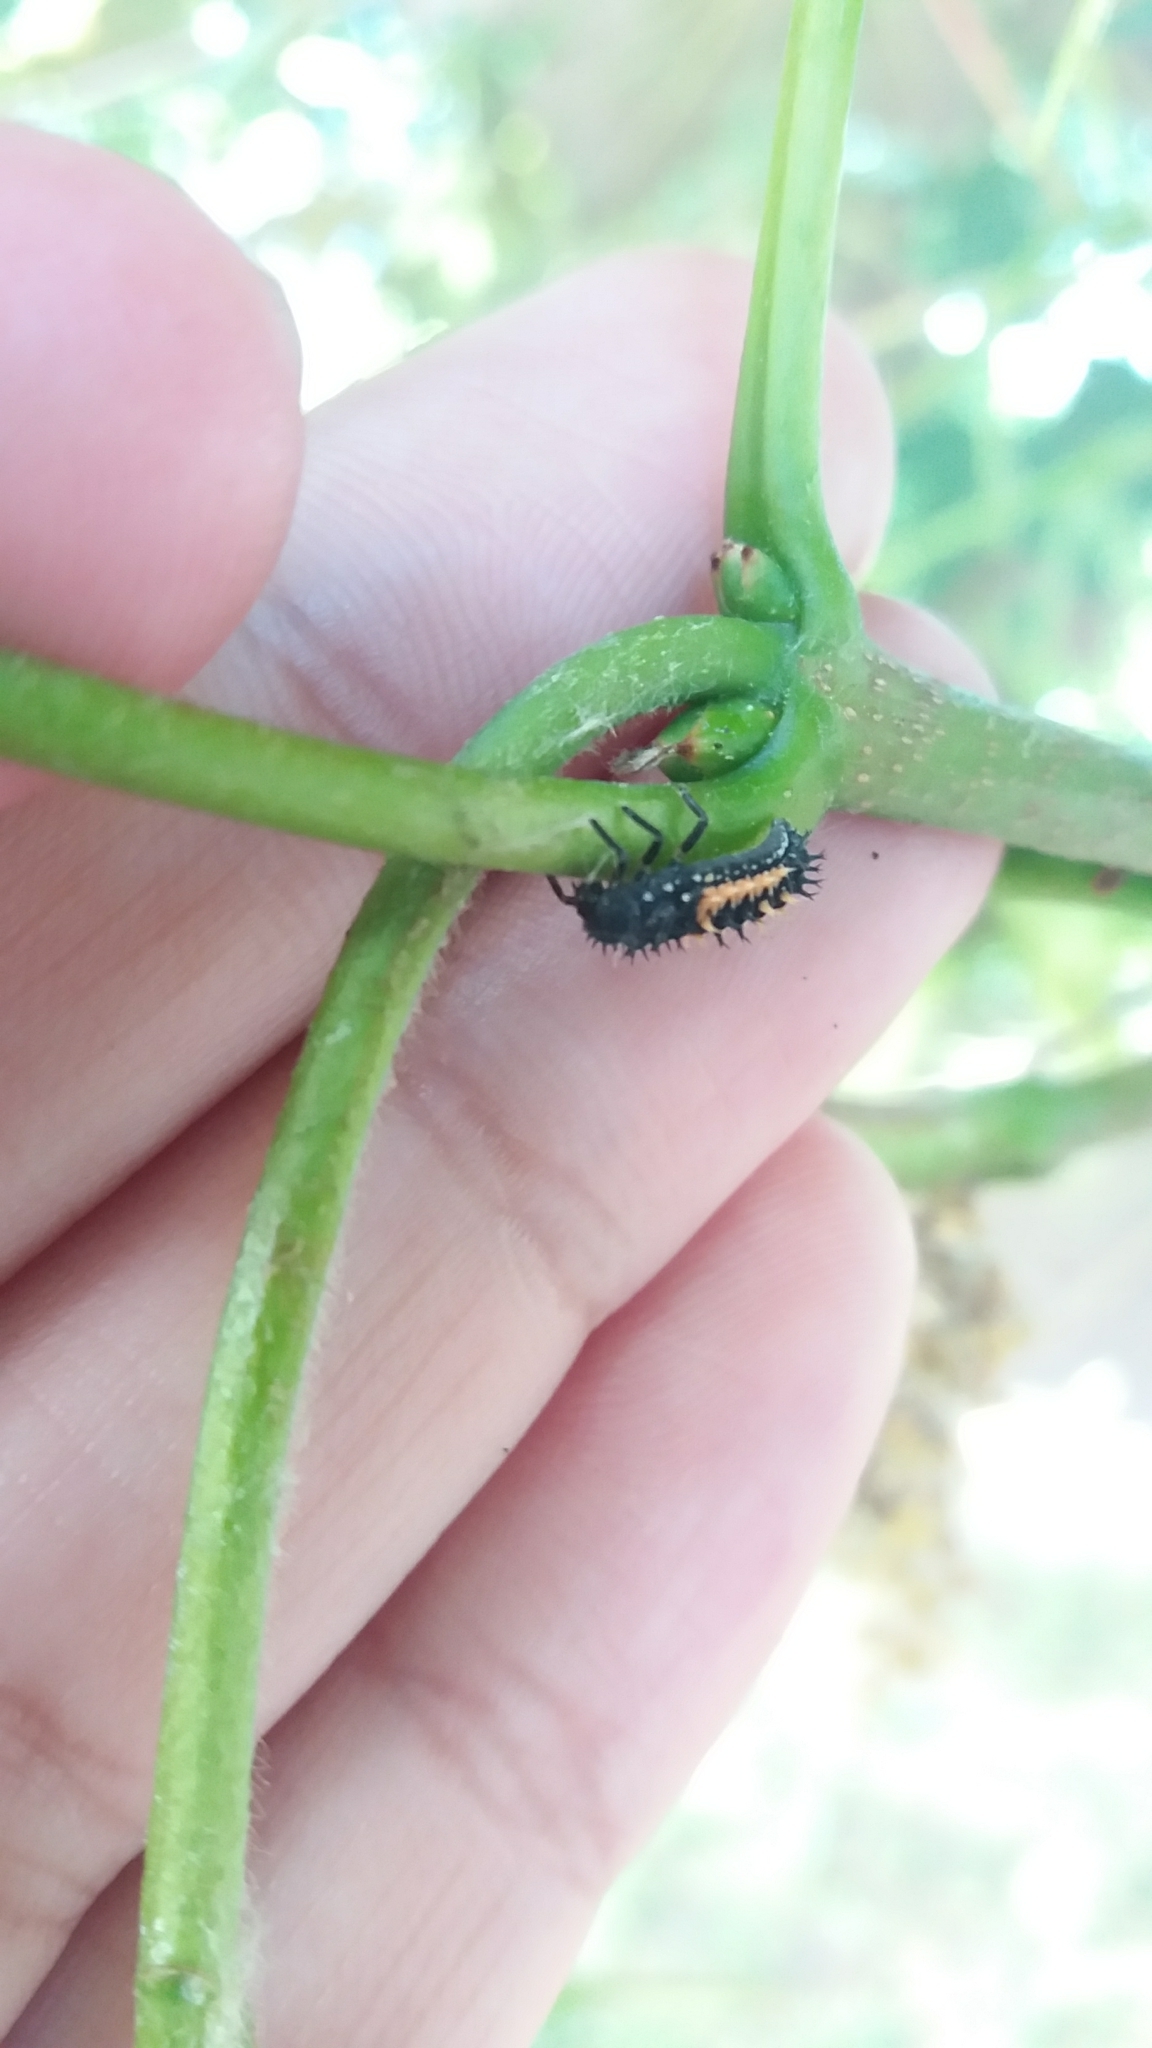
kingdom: Animalia
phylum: Arthropoda
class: Insecta
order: Coleoptera
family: Coccinellidae
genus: Harmonia
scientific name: Harmonia axyridis
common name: Harlequin ladybird
